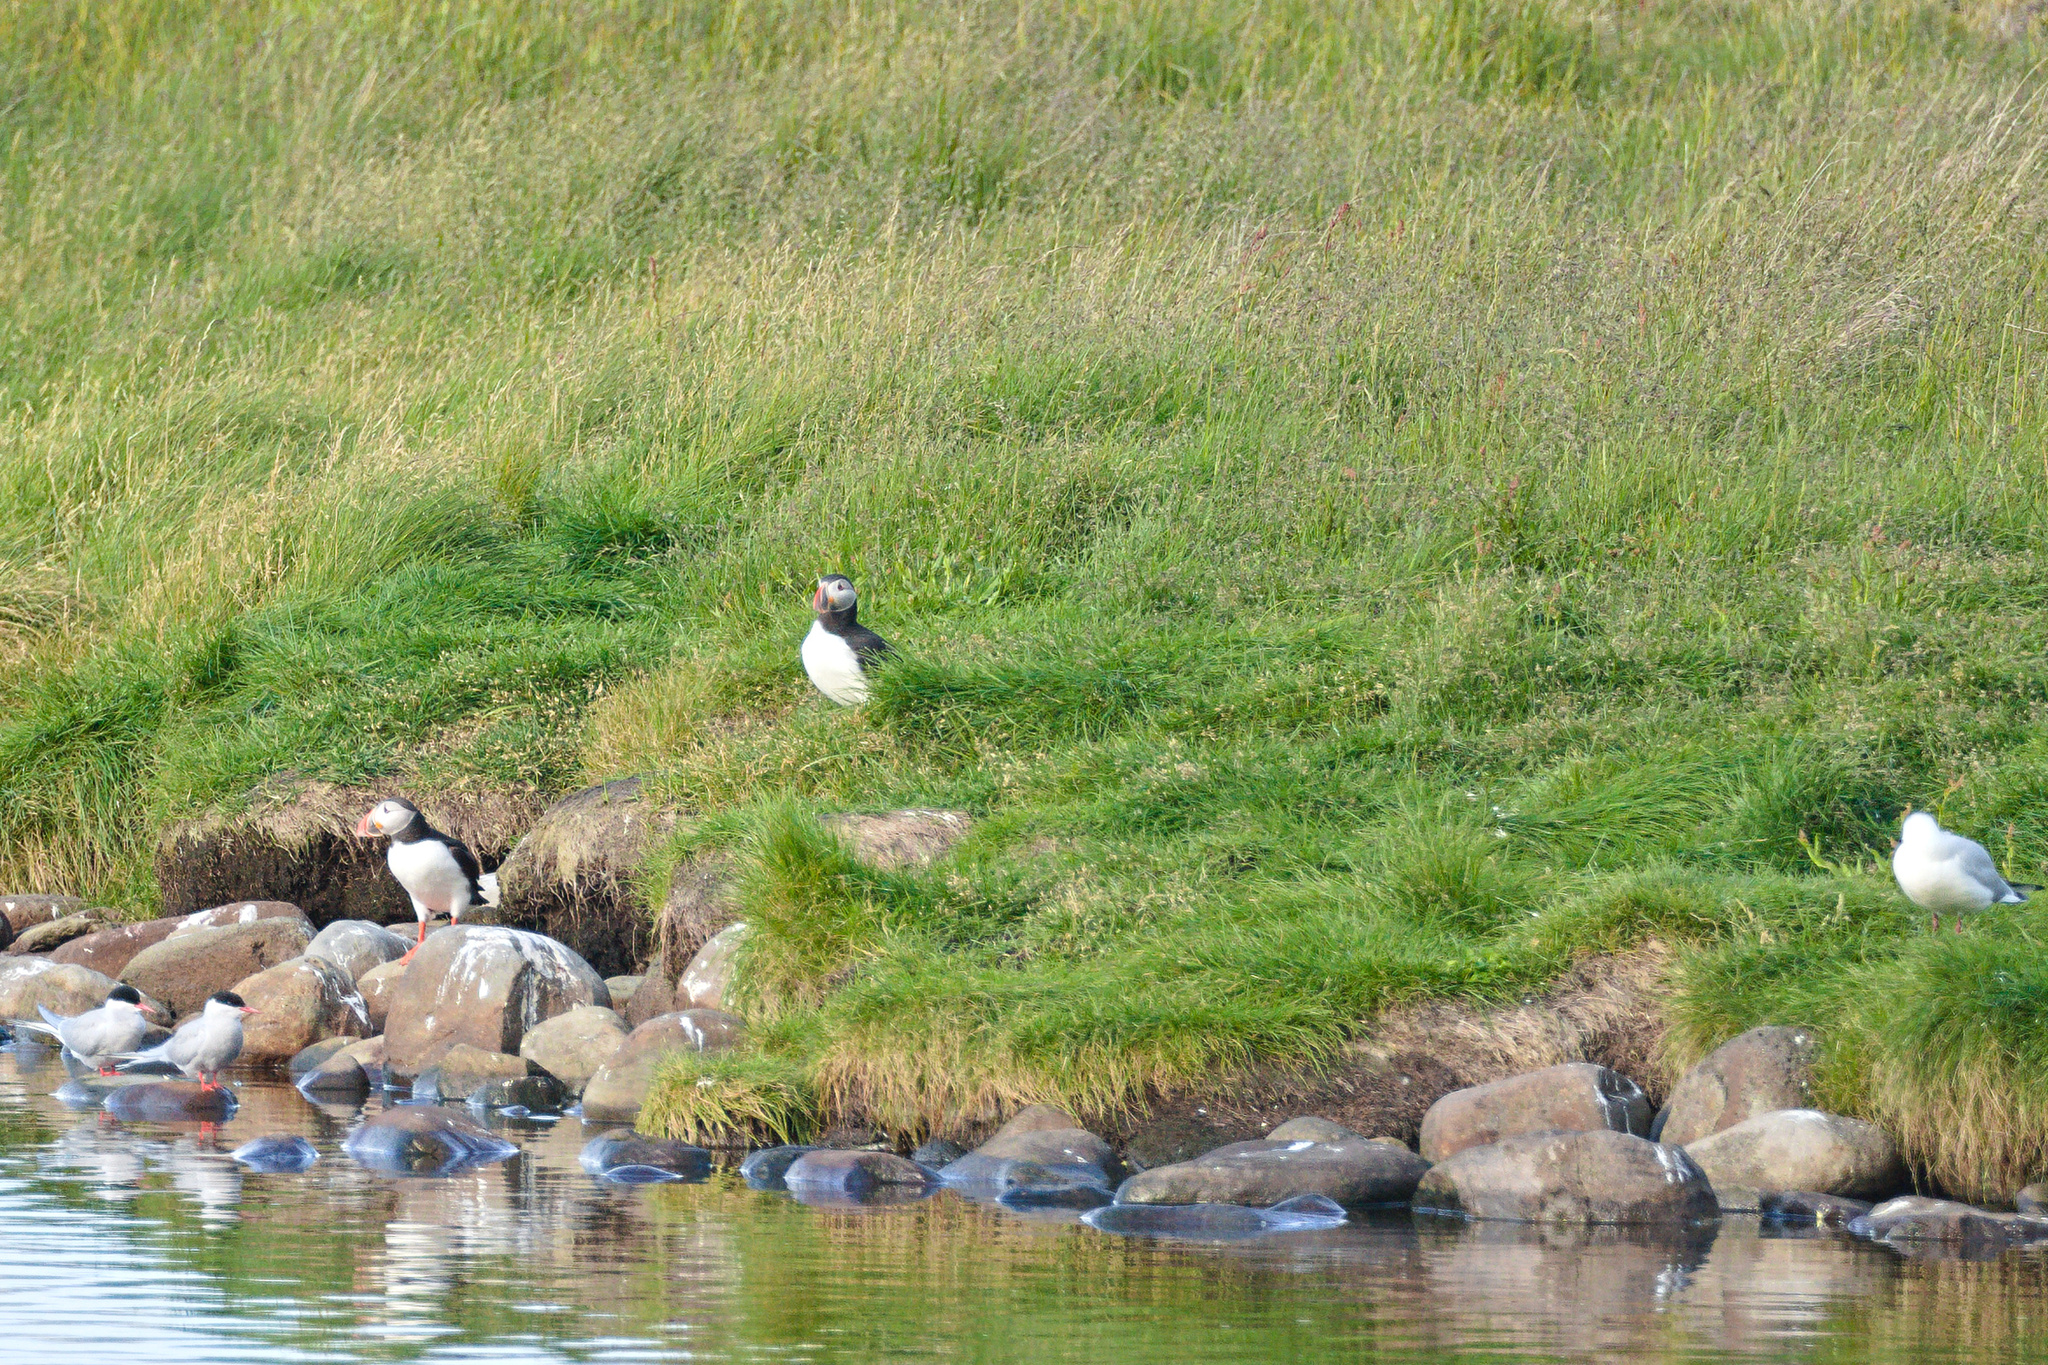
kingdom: Animalia
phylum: Chordata
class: Aves
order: Charadriiformes
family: Alcidae
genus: Fratercula
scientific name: Fratercula arctica
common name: Atlantic puffin
